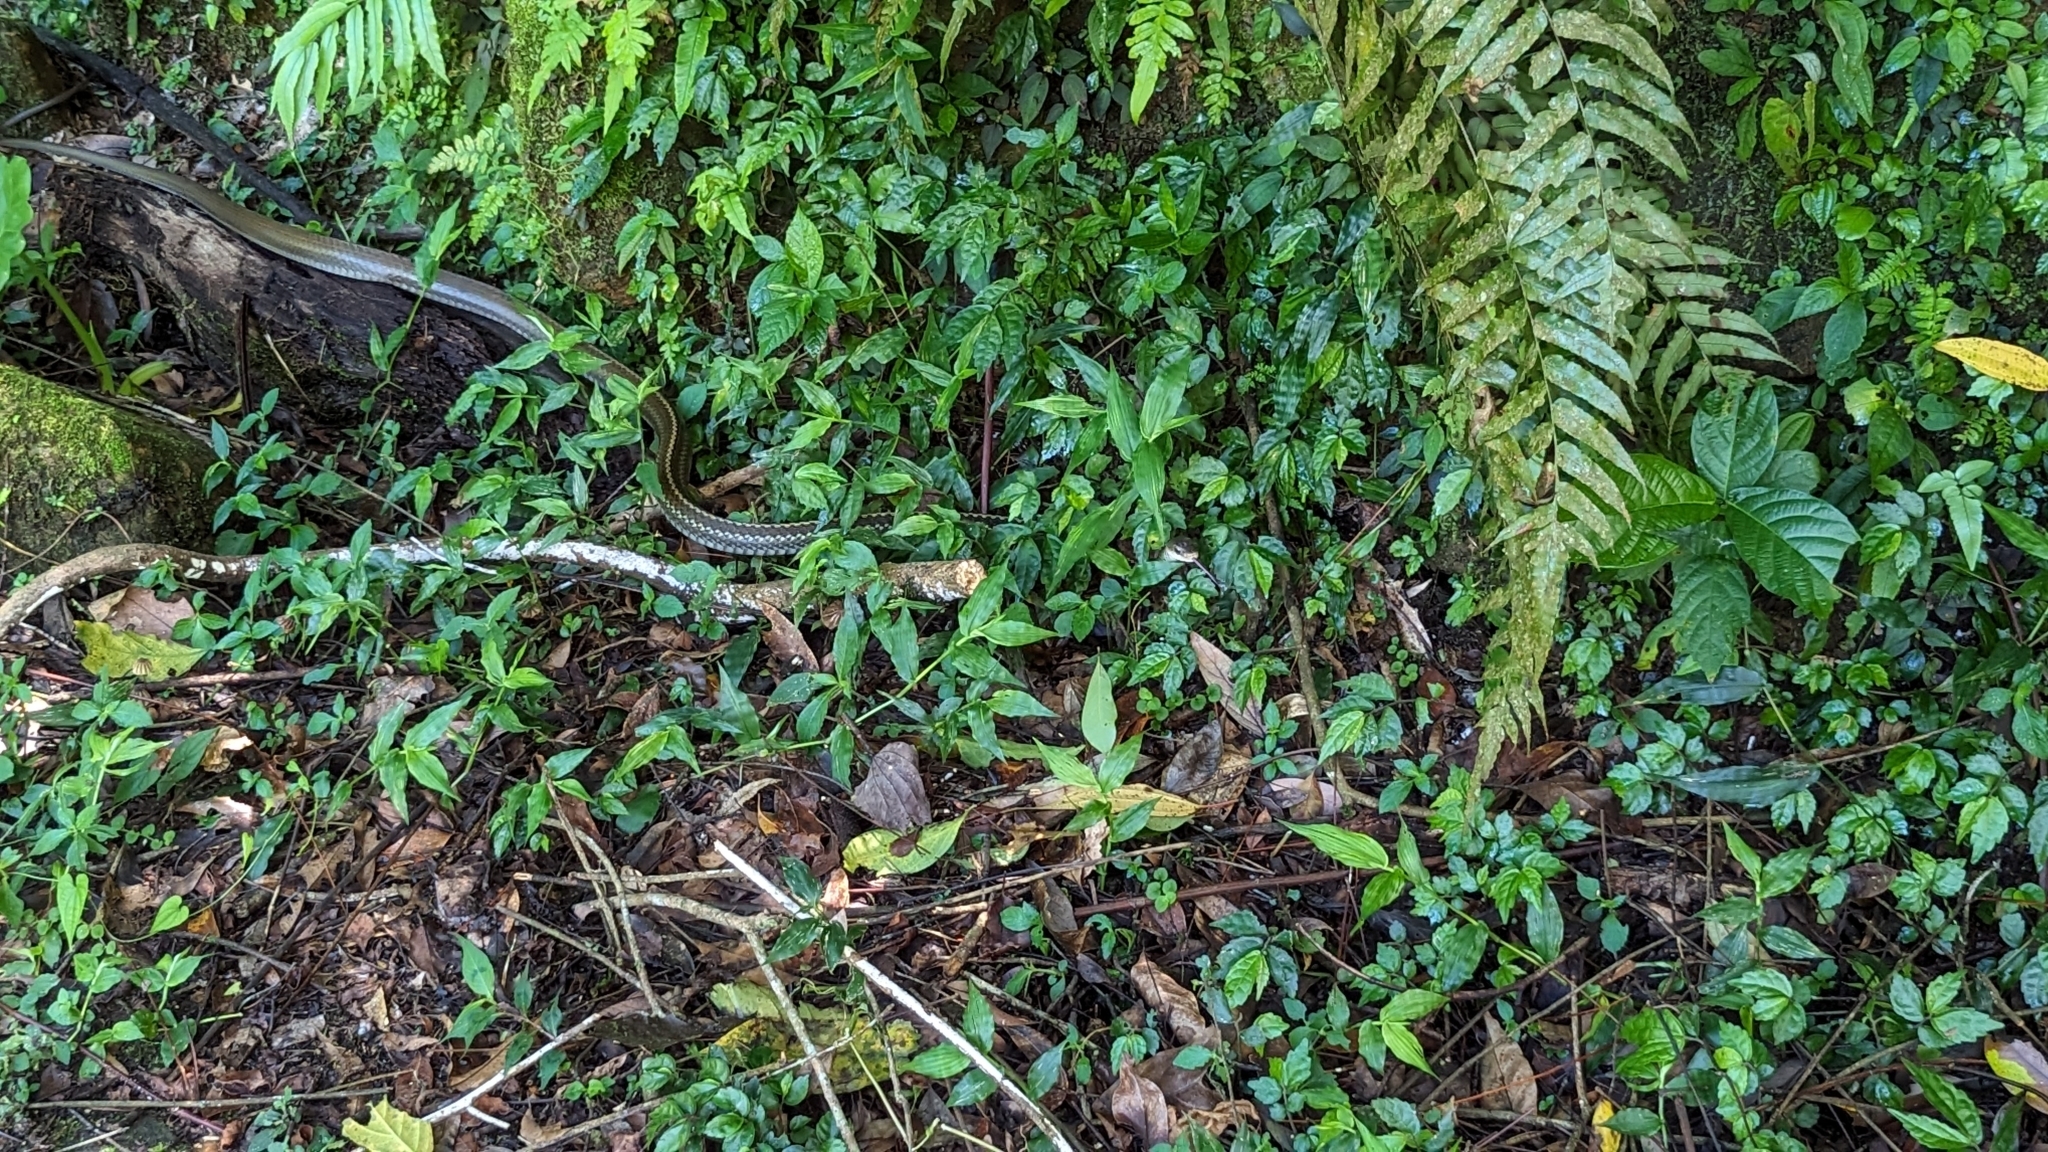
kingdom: Animalia
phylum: Chordata
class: Squamata
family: Colubridae
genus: Ptyas
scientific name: Ptyas dhumnades
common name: Black-striped rat snake
